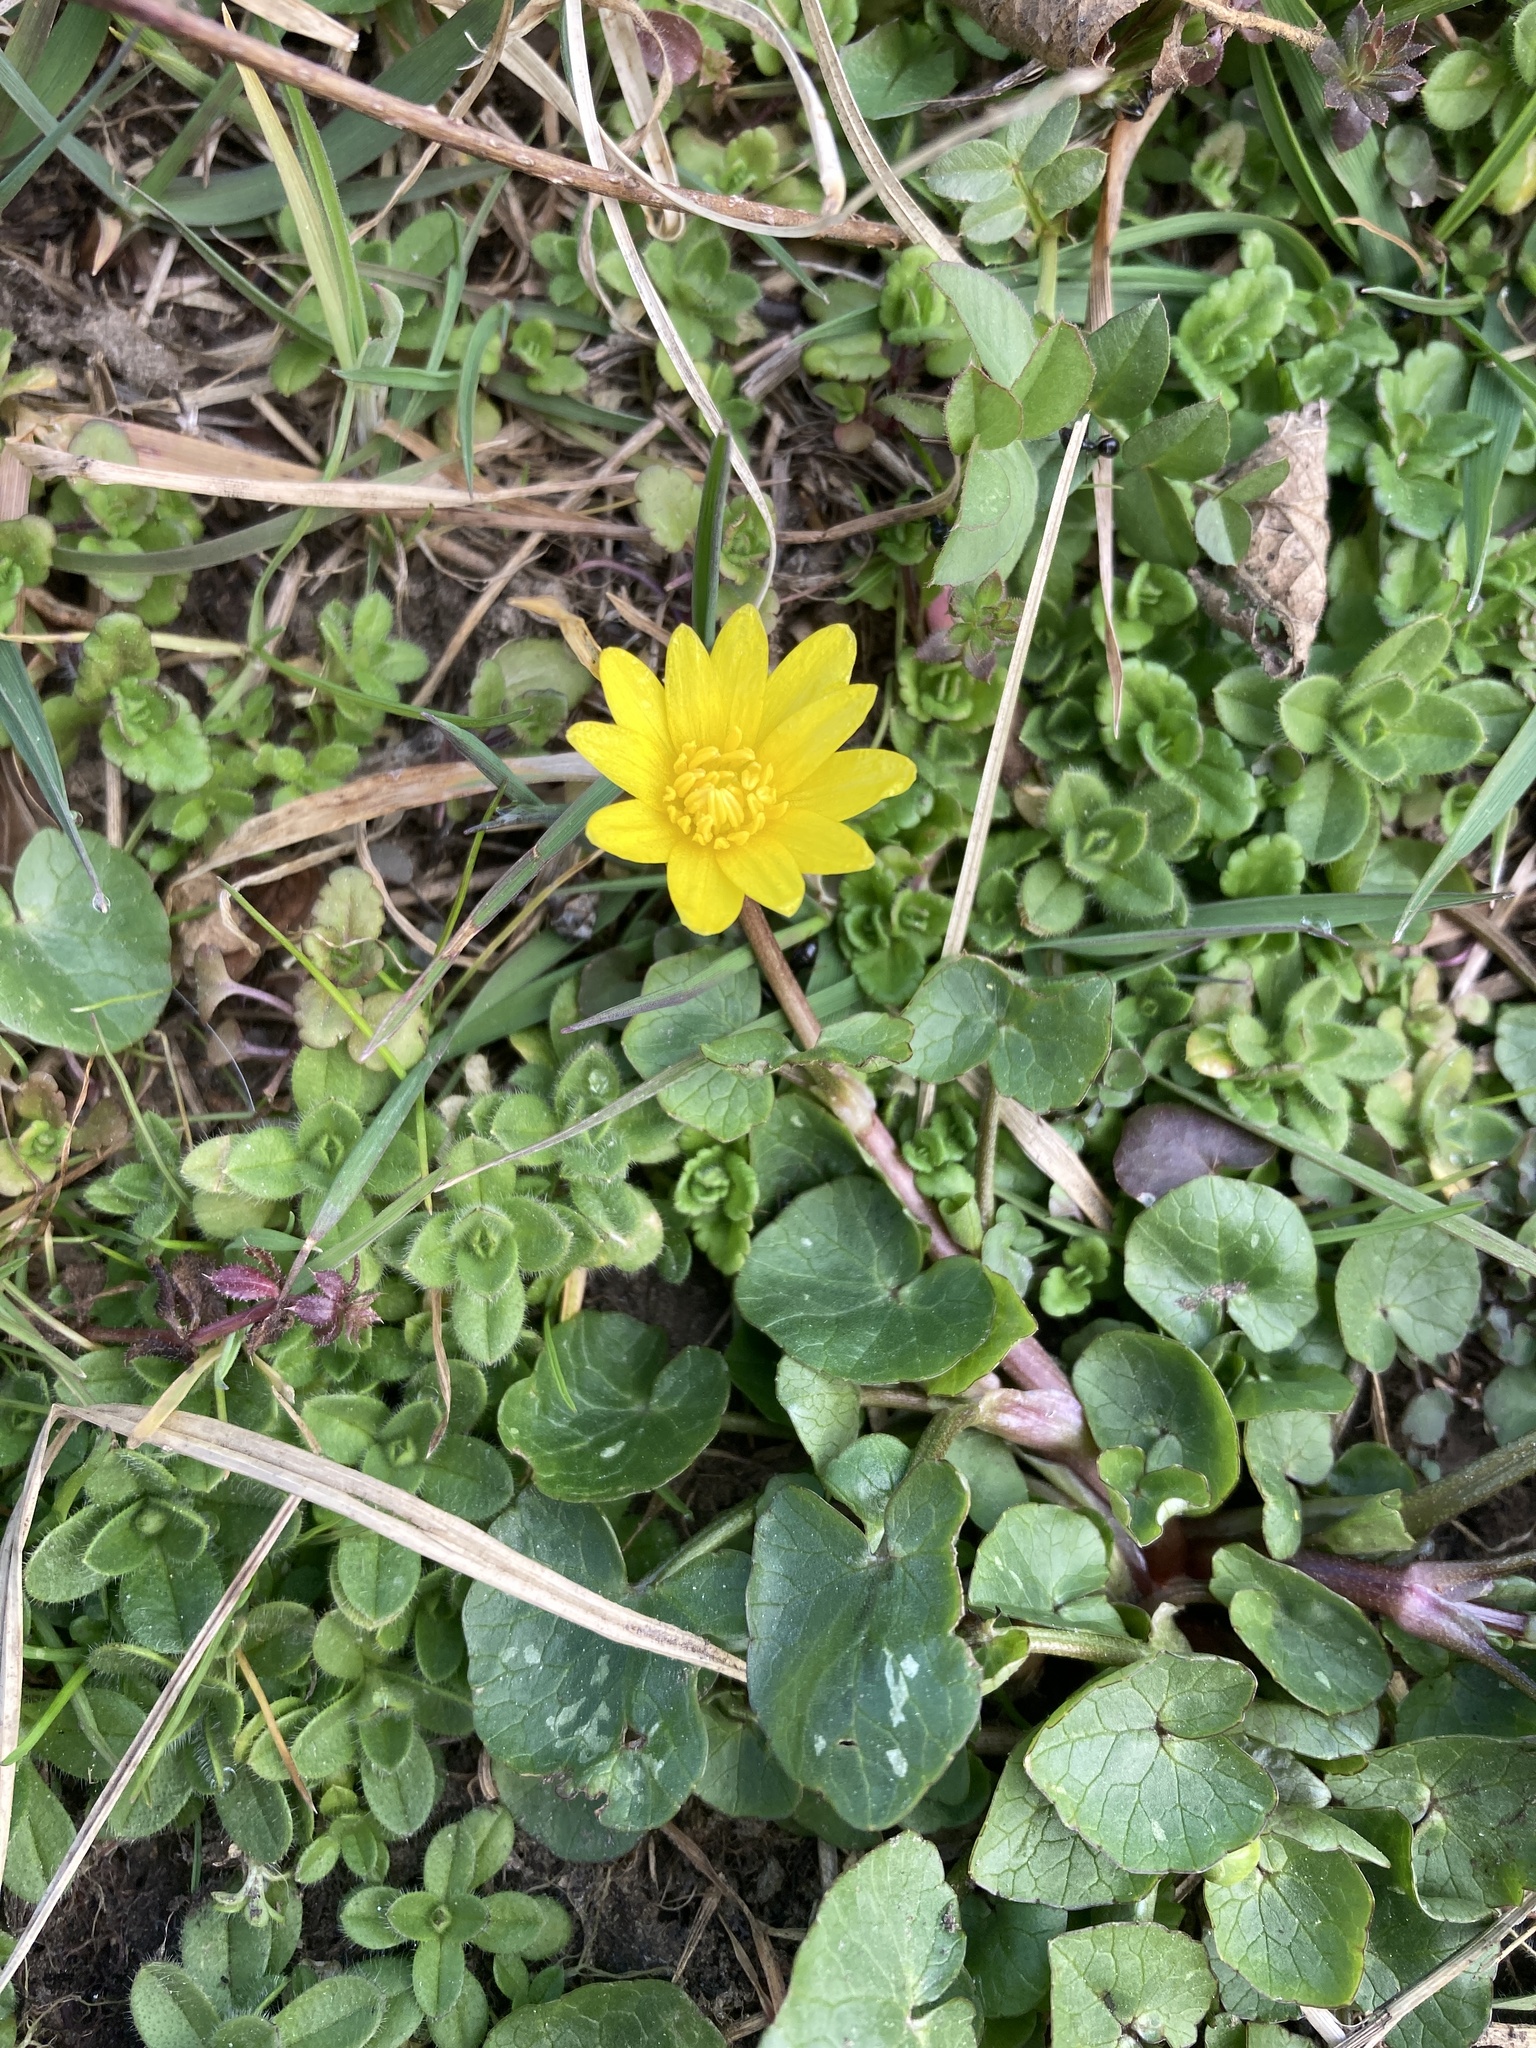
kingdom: Plantae
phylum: Tracheophyta
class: Magnoliopsida
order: Ranunculales
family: Ranunculaceae
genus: Ficaria
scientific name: Ficaria verna
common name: Lesser celandine
